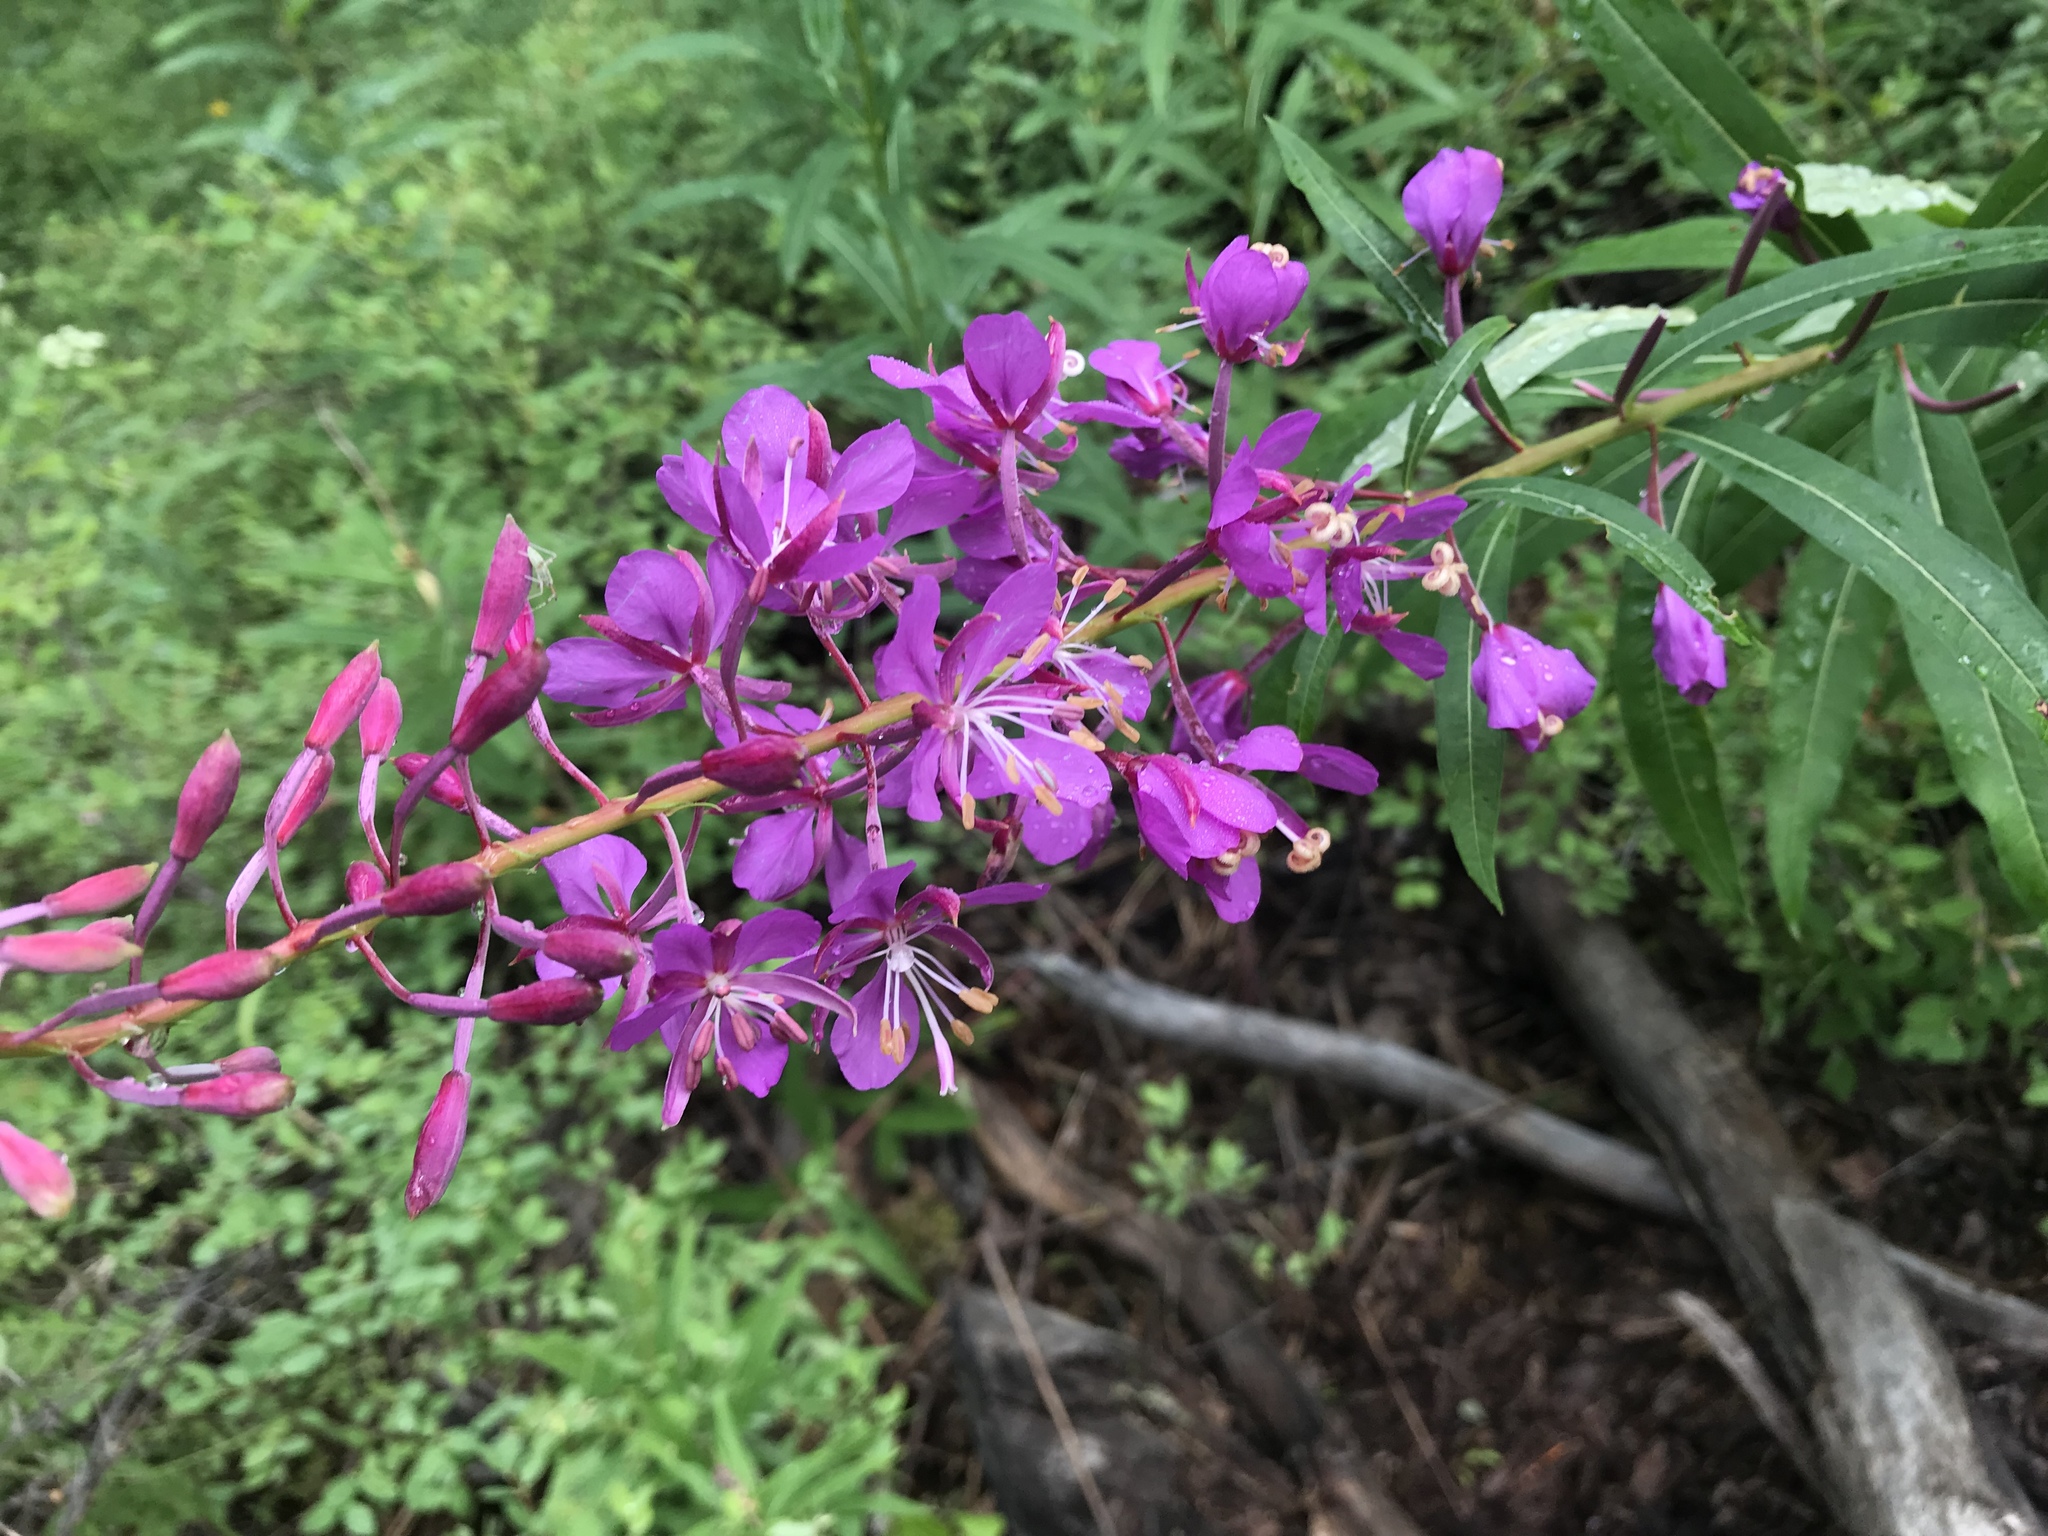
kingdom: Plantae
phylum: Tracheophyta
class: Magnoliopsida
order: Myrtales
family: Onagraceae
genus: Chamaenerion
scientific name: Chamaenerion angustifolium
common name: Fireweed
